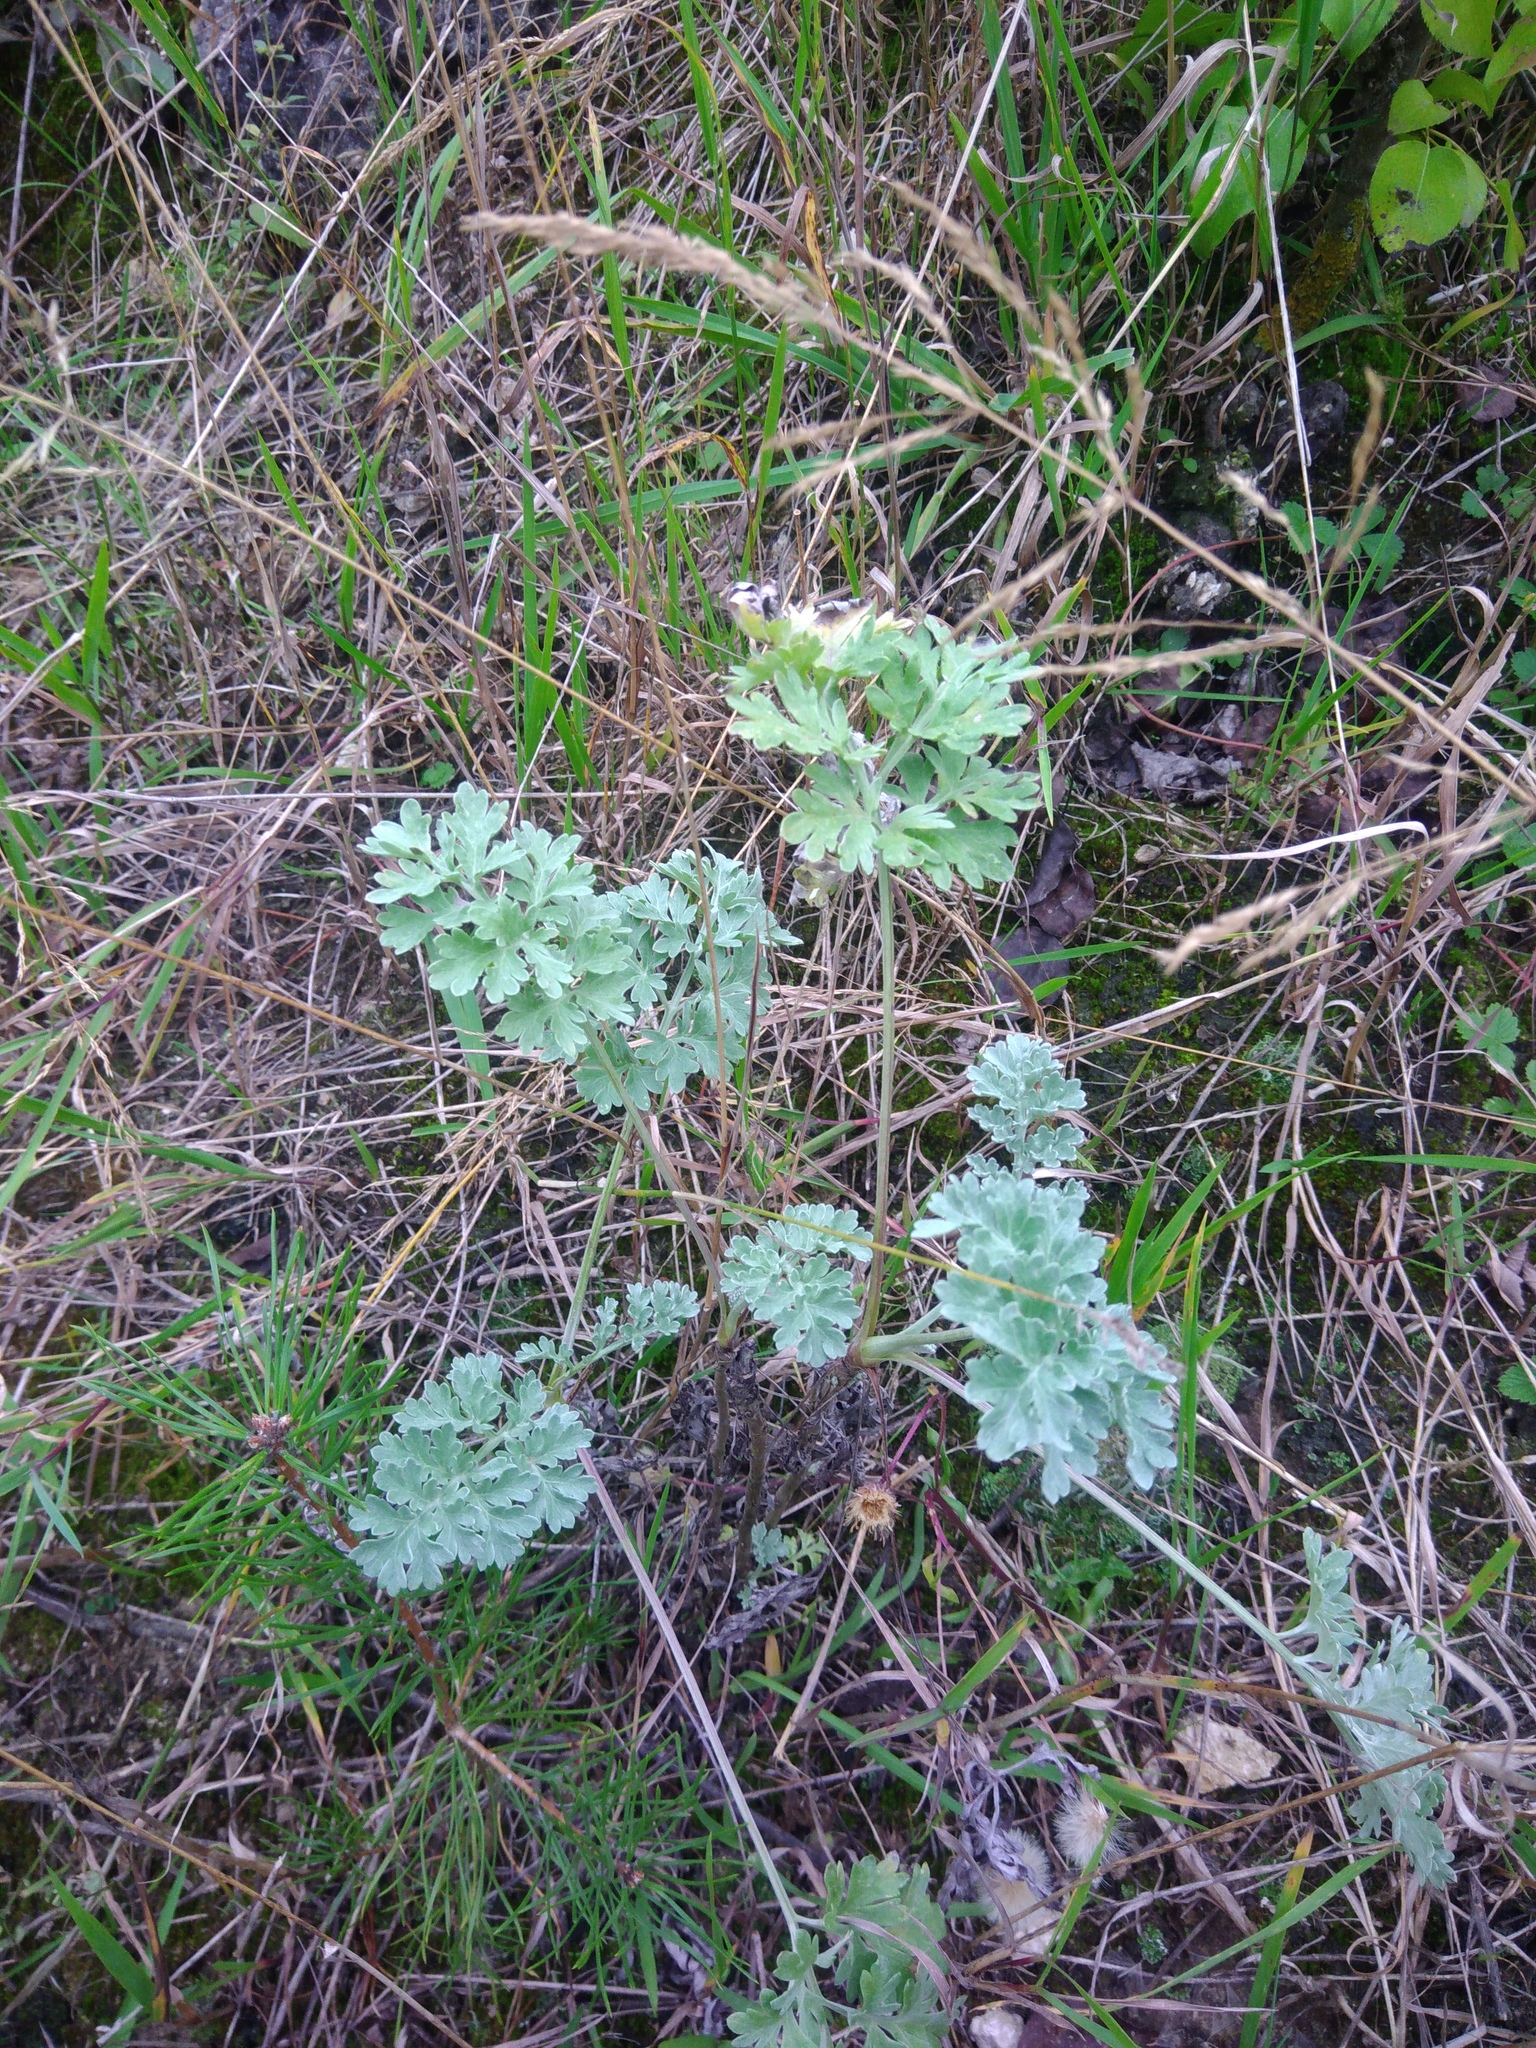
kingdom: Plantae
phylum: Tracheophyta
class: Magnoliopsida
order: Asterales
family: Asteraceae
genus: Artemisia
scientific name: Artemisia absinthium
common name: Wormwood
